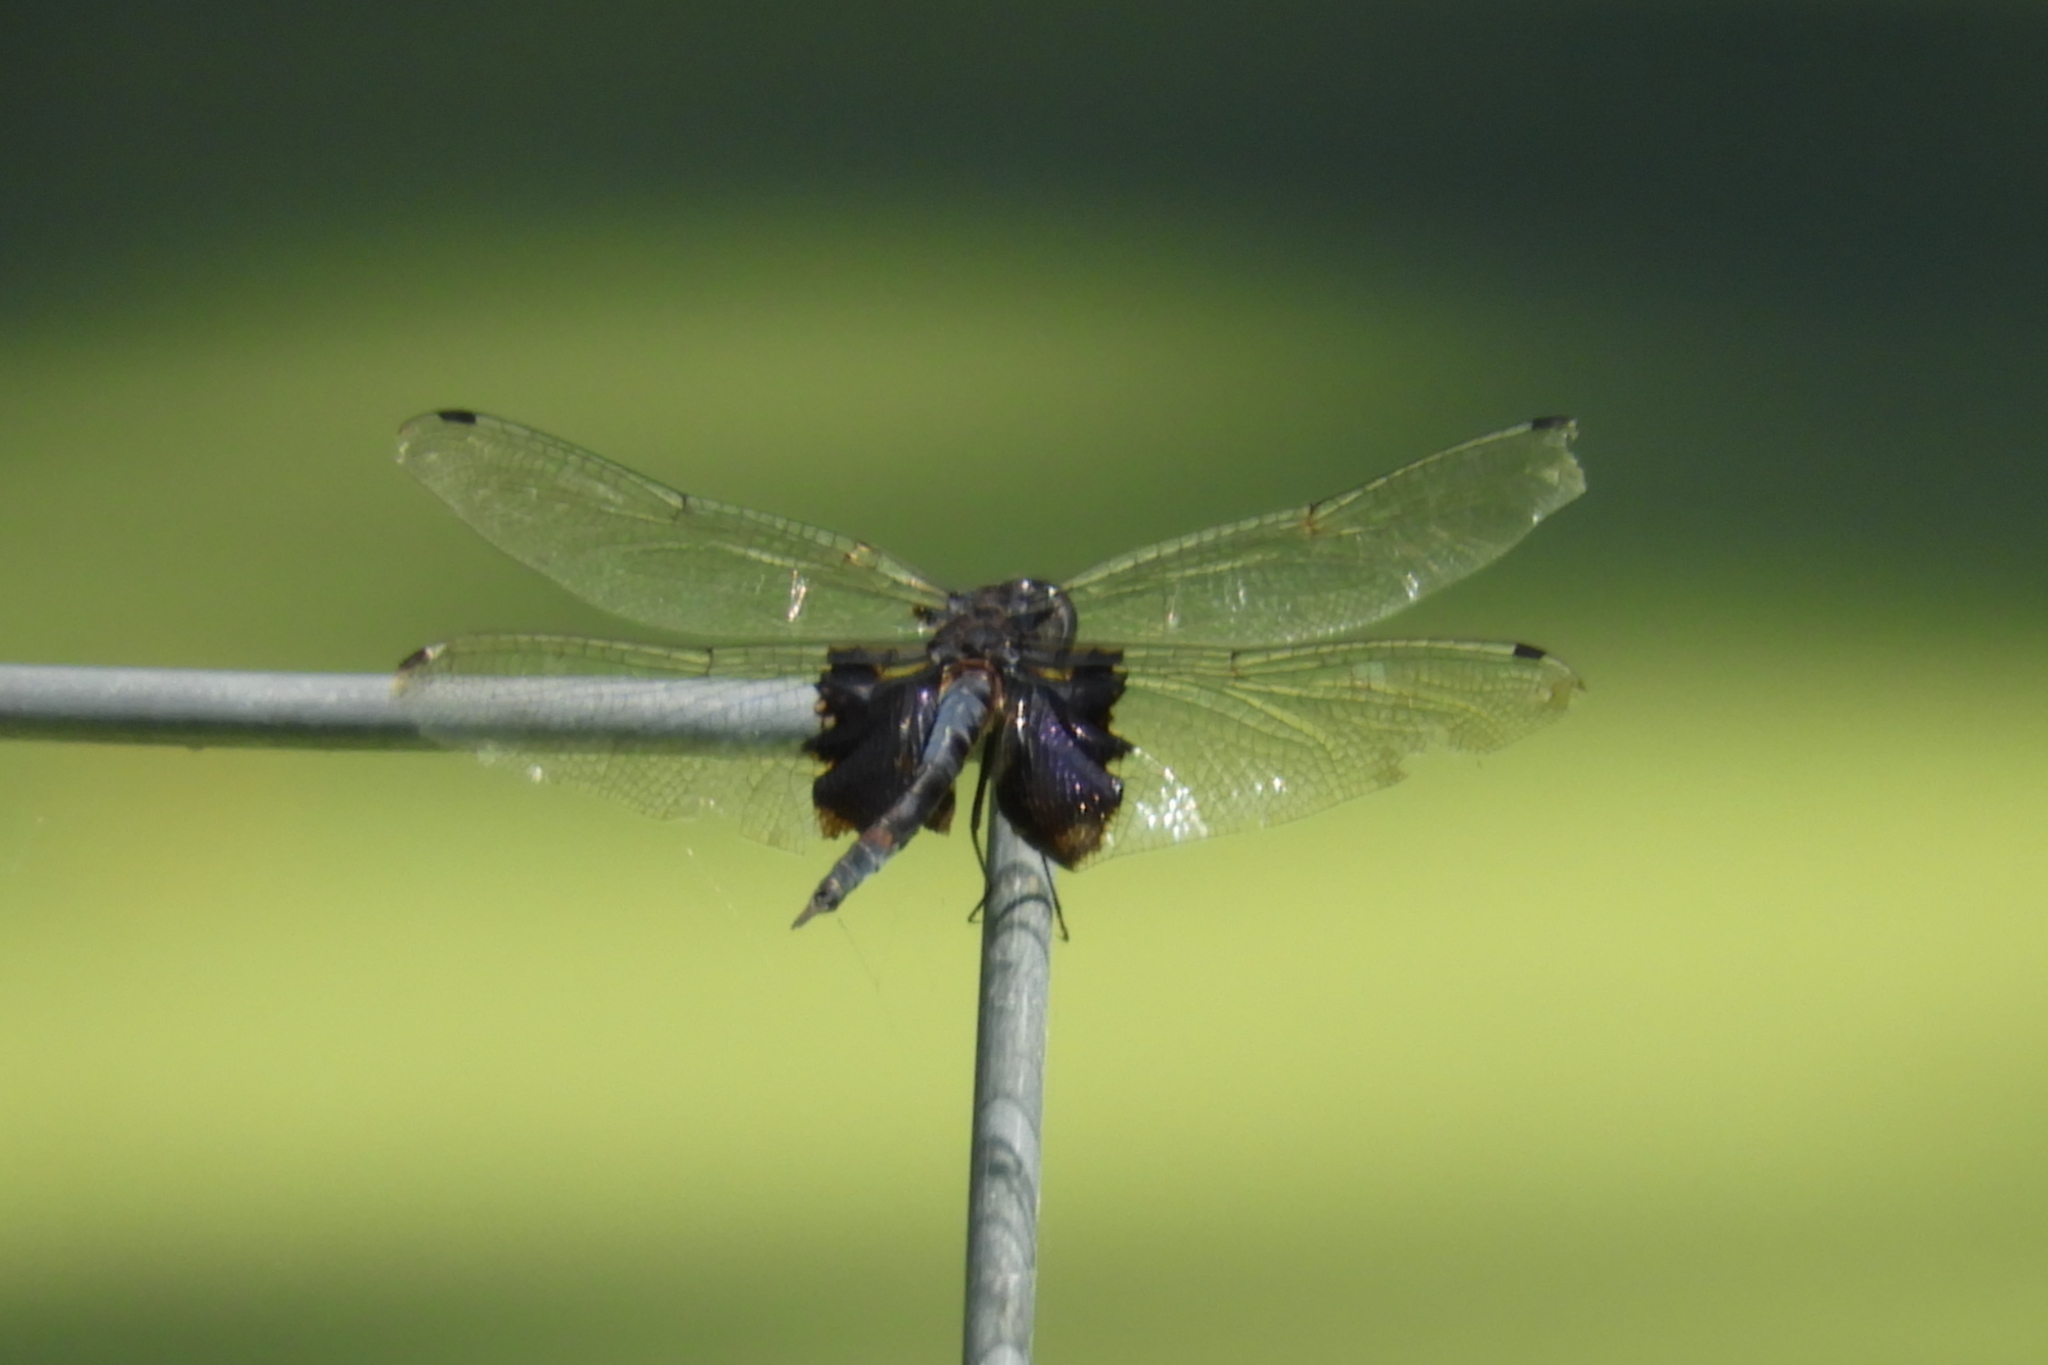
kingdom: Animalia
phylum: Arthropoda
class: Insecta
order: Odonata
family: Libellulidae
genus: Tramea
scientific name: Tramea lacerata
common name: Black saddlebags
